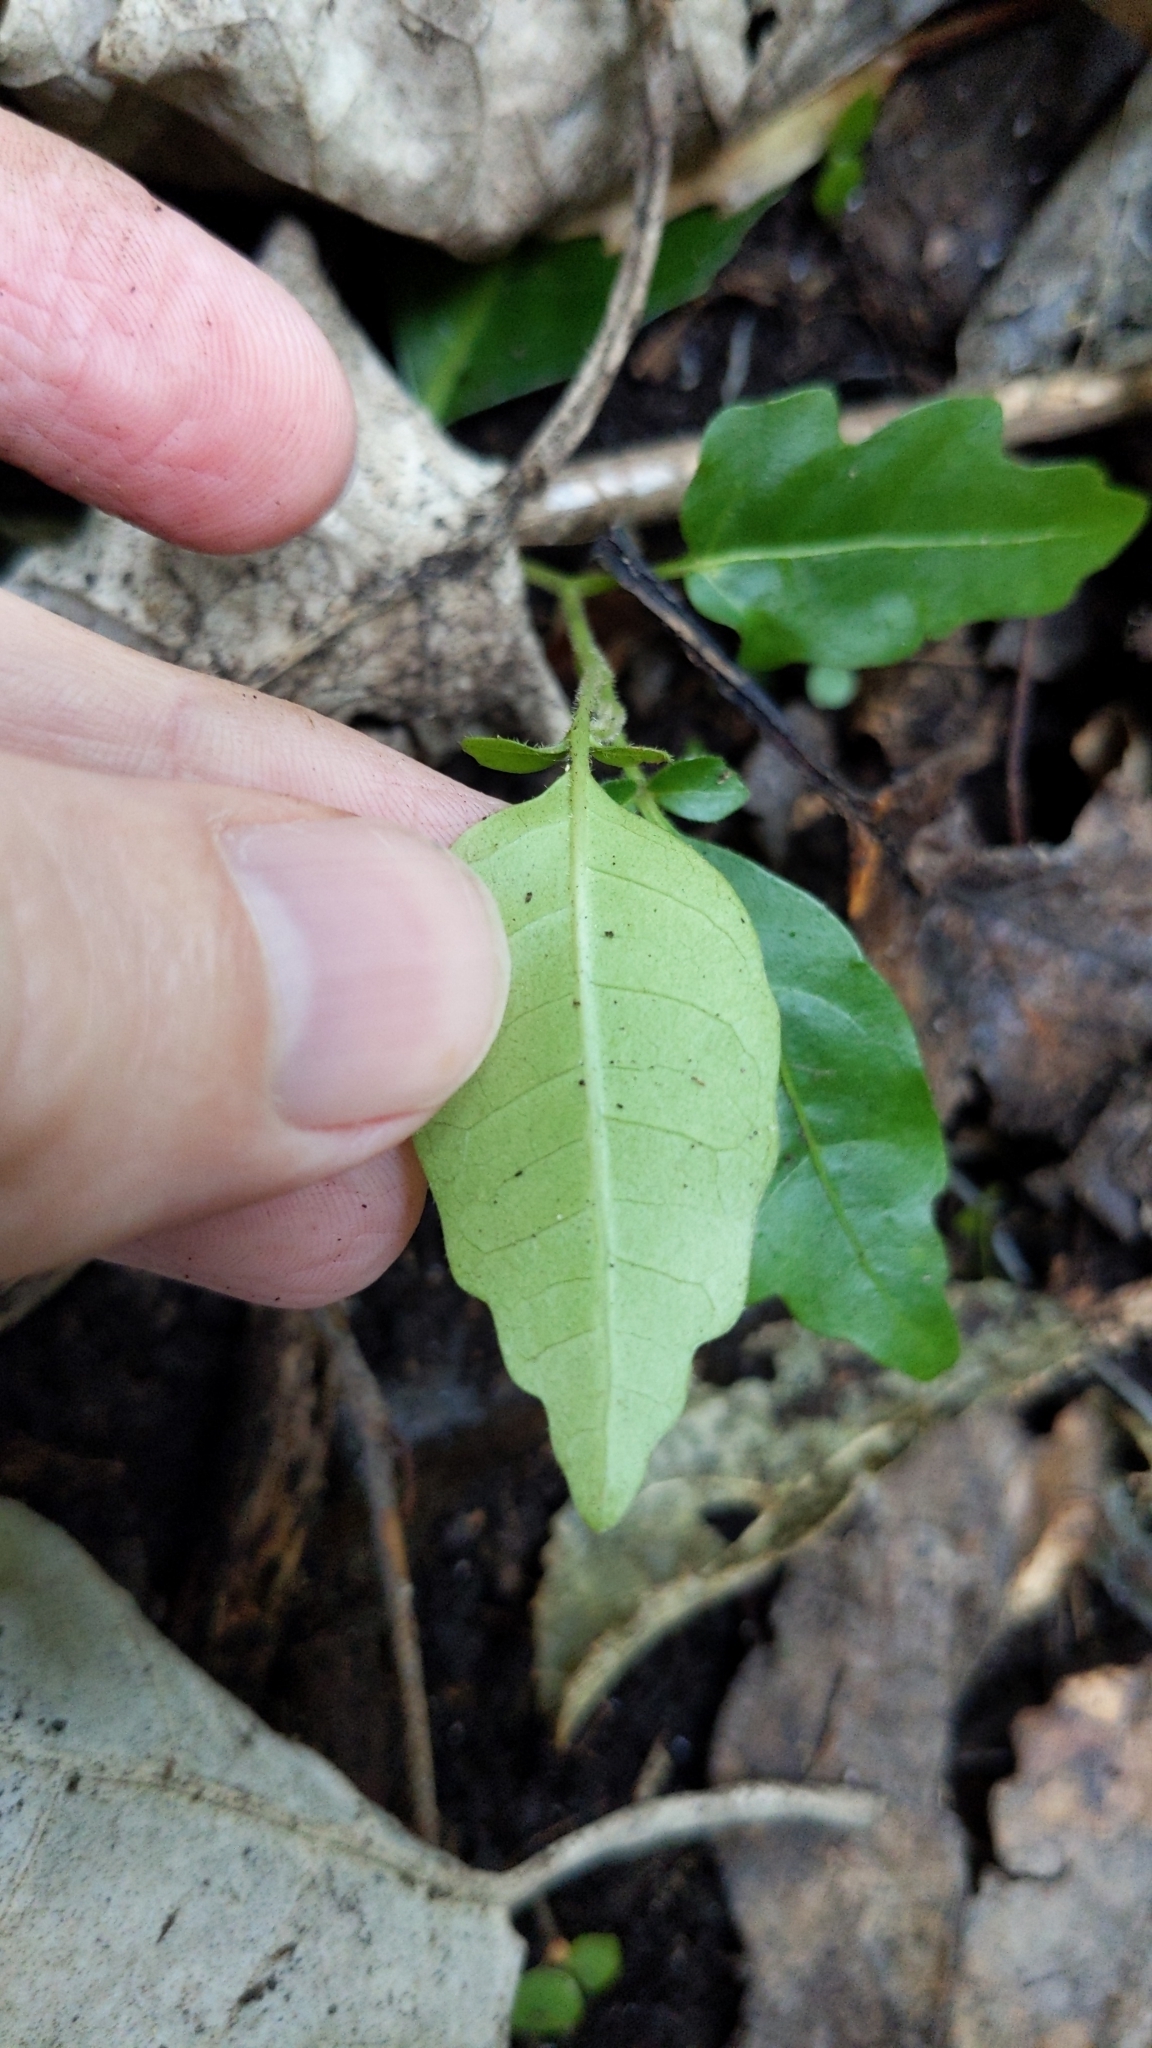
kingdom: Plantae
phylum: Tracheophyta
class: Magnoliopsida
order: Sapindales
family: Meliaceae
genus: Didymocheton
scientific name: Didymocheton spectabilis
